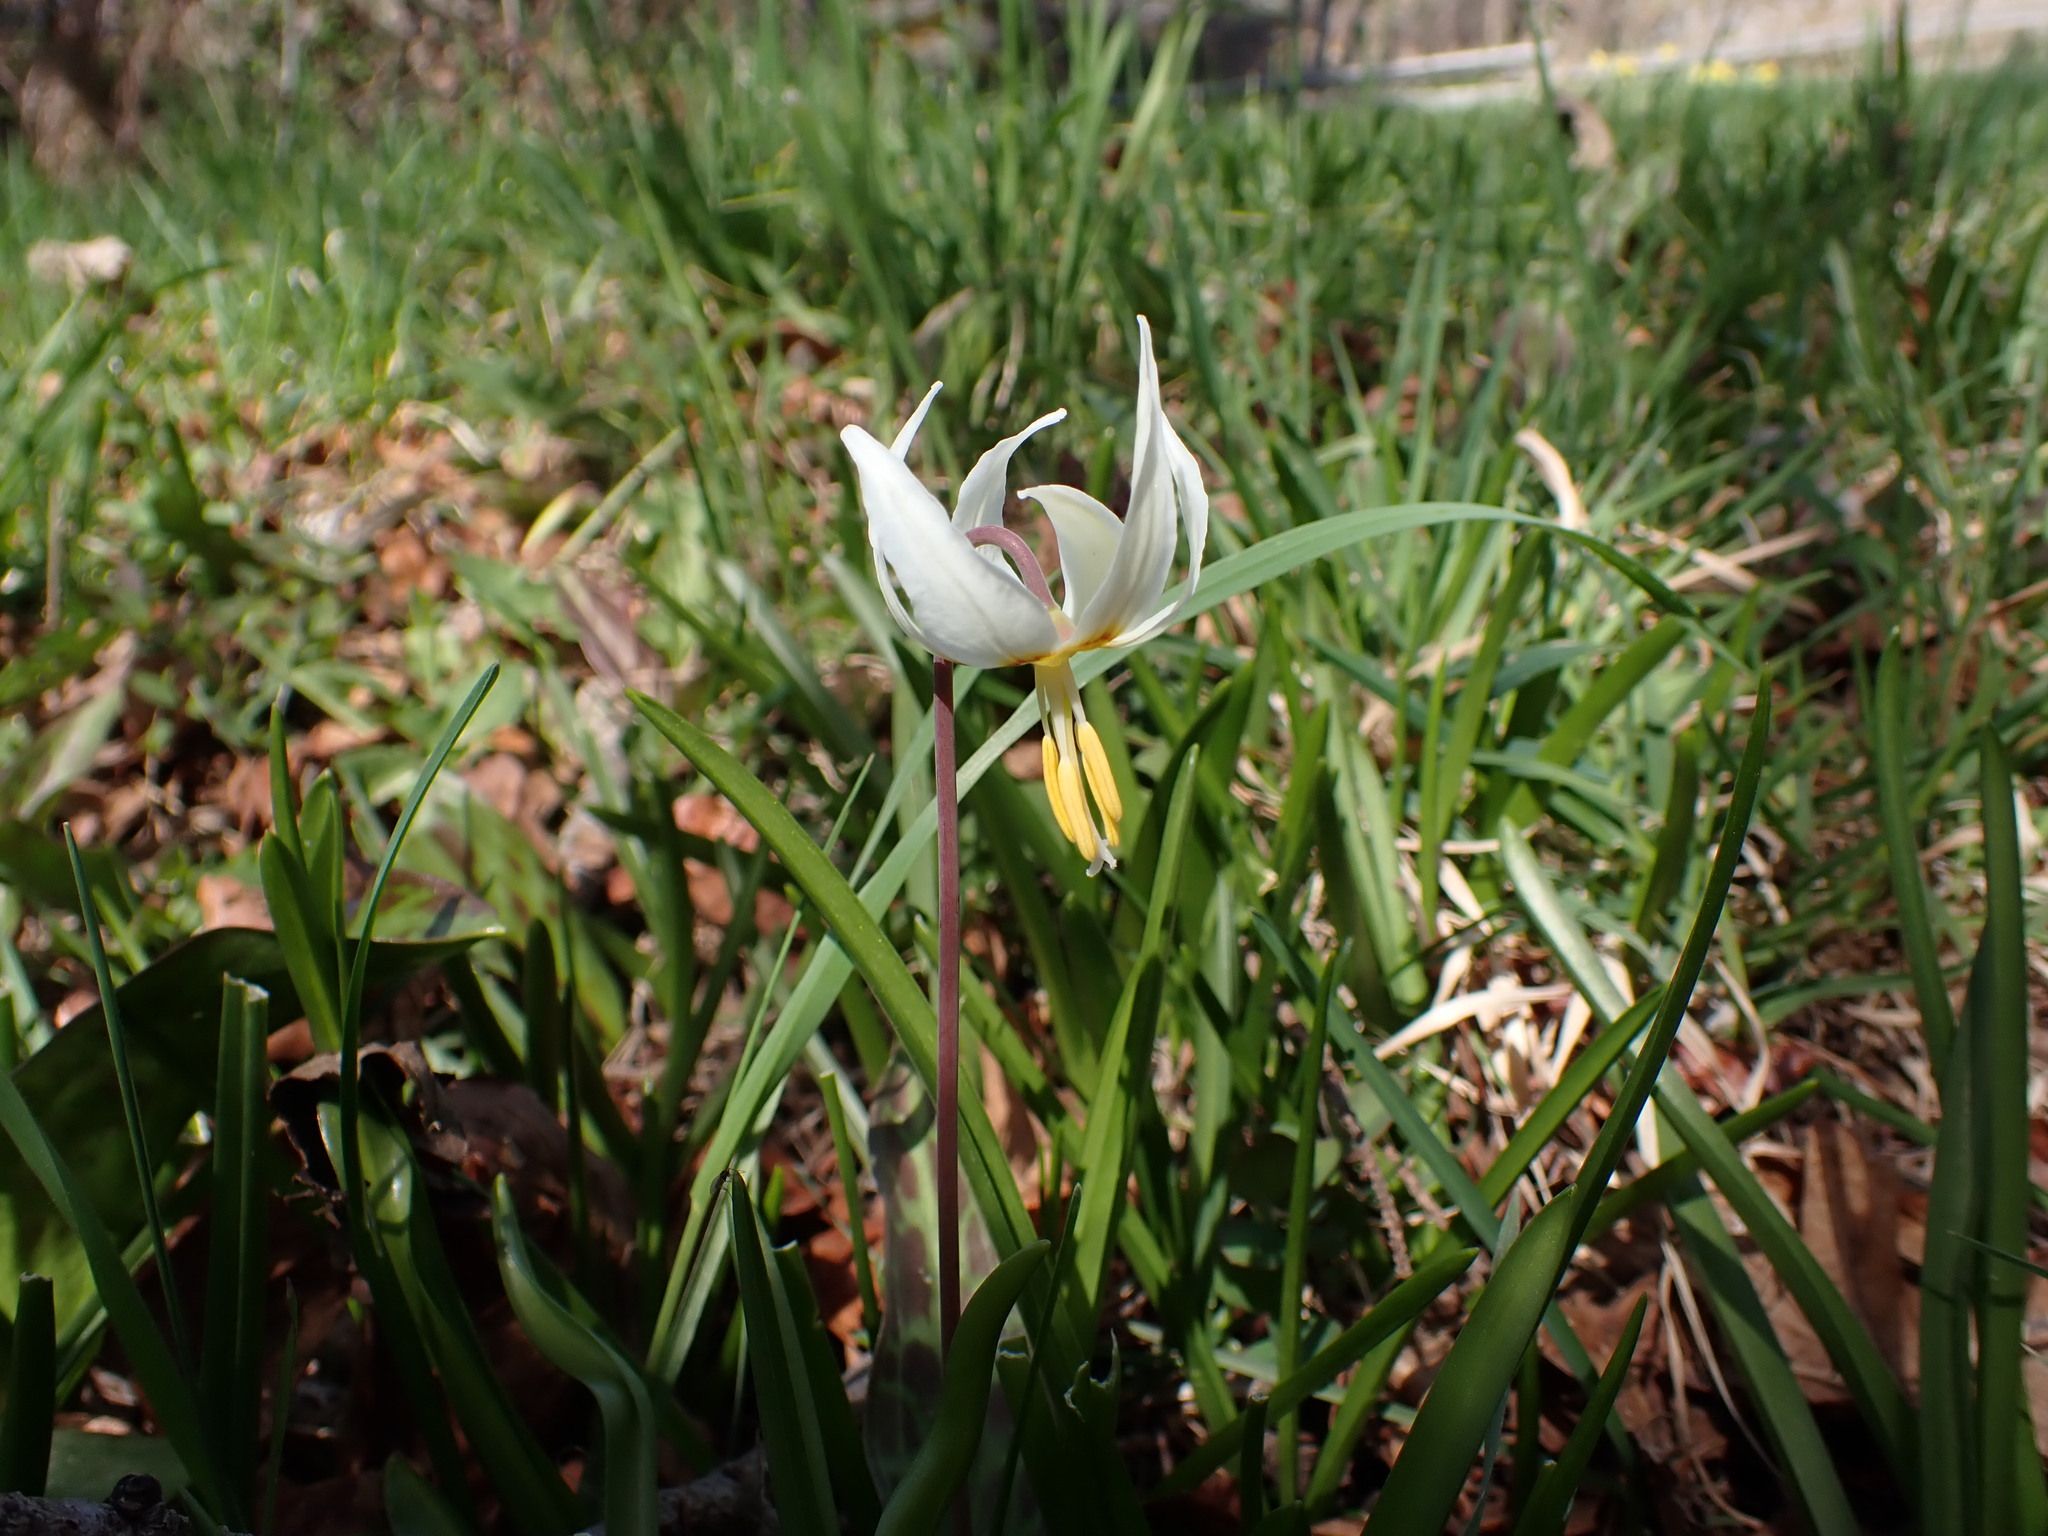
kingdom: Plantae
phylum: Tracheophyta
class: Liliopsida
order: Liliales
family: Liliaceae
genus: Erythronium
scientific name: Erythronium oregonum
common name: Giant adder's-tongue
